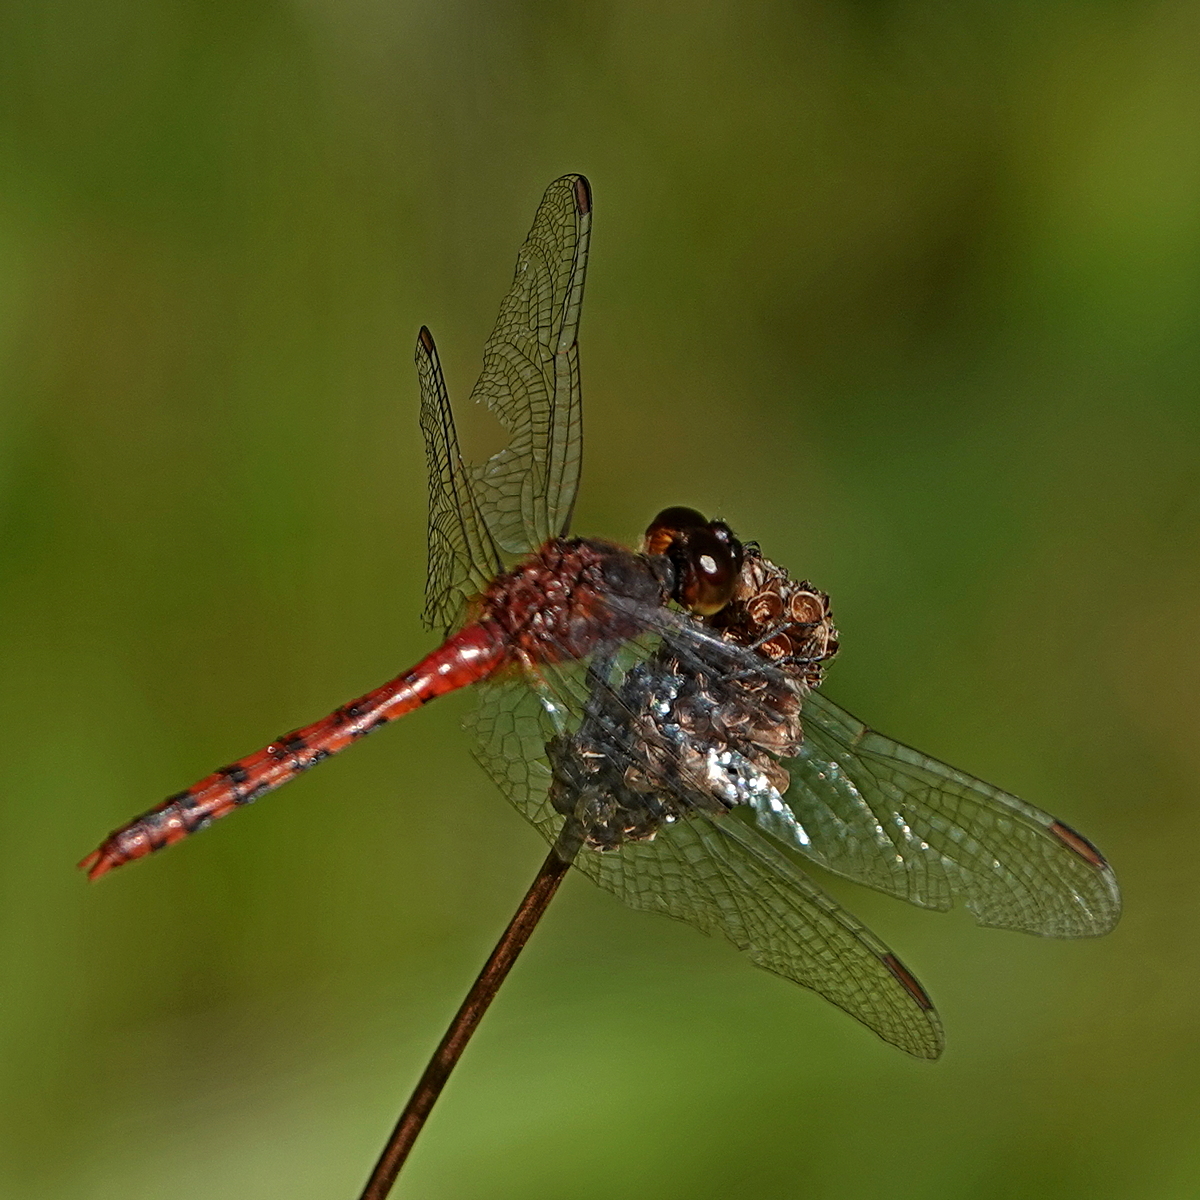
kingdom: Animalia
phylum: Arthropoda
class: Insecta
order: Odonata
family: Libellulidae
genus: Diplacodes
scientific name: Diplacodes melanopsis
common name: Black-faced percher
